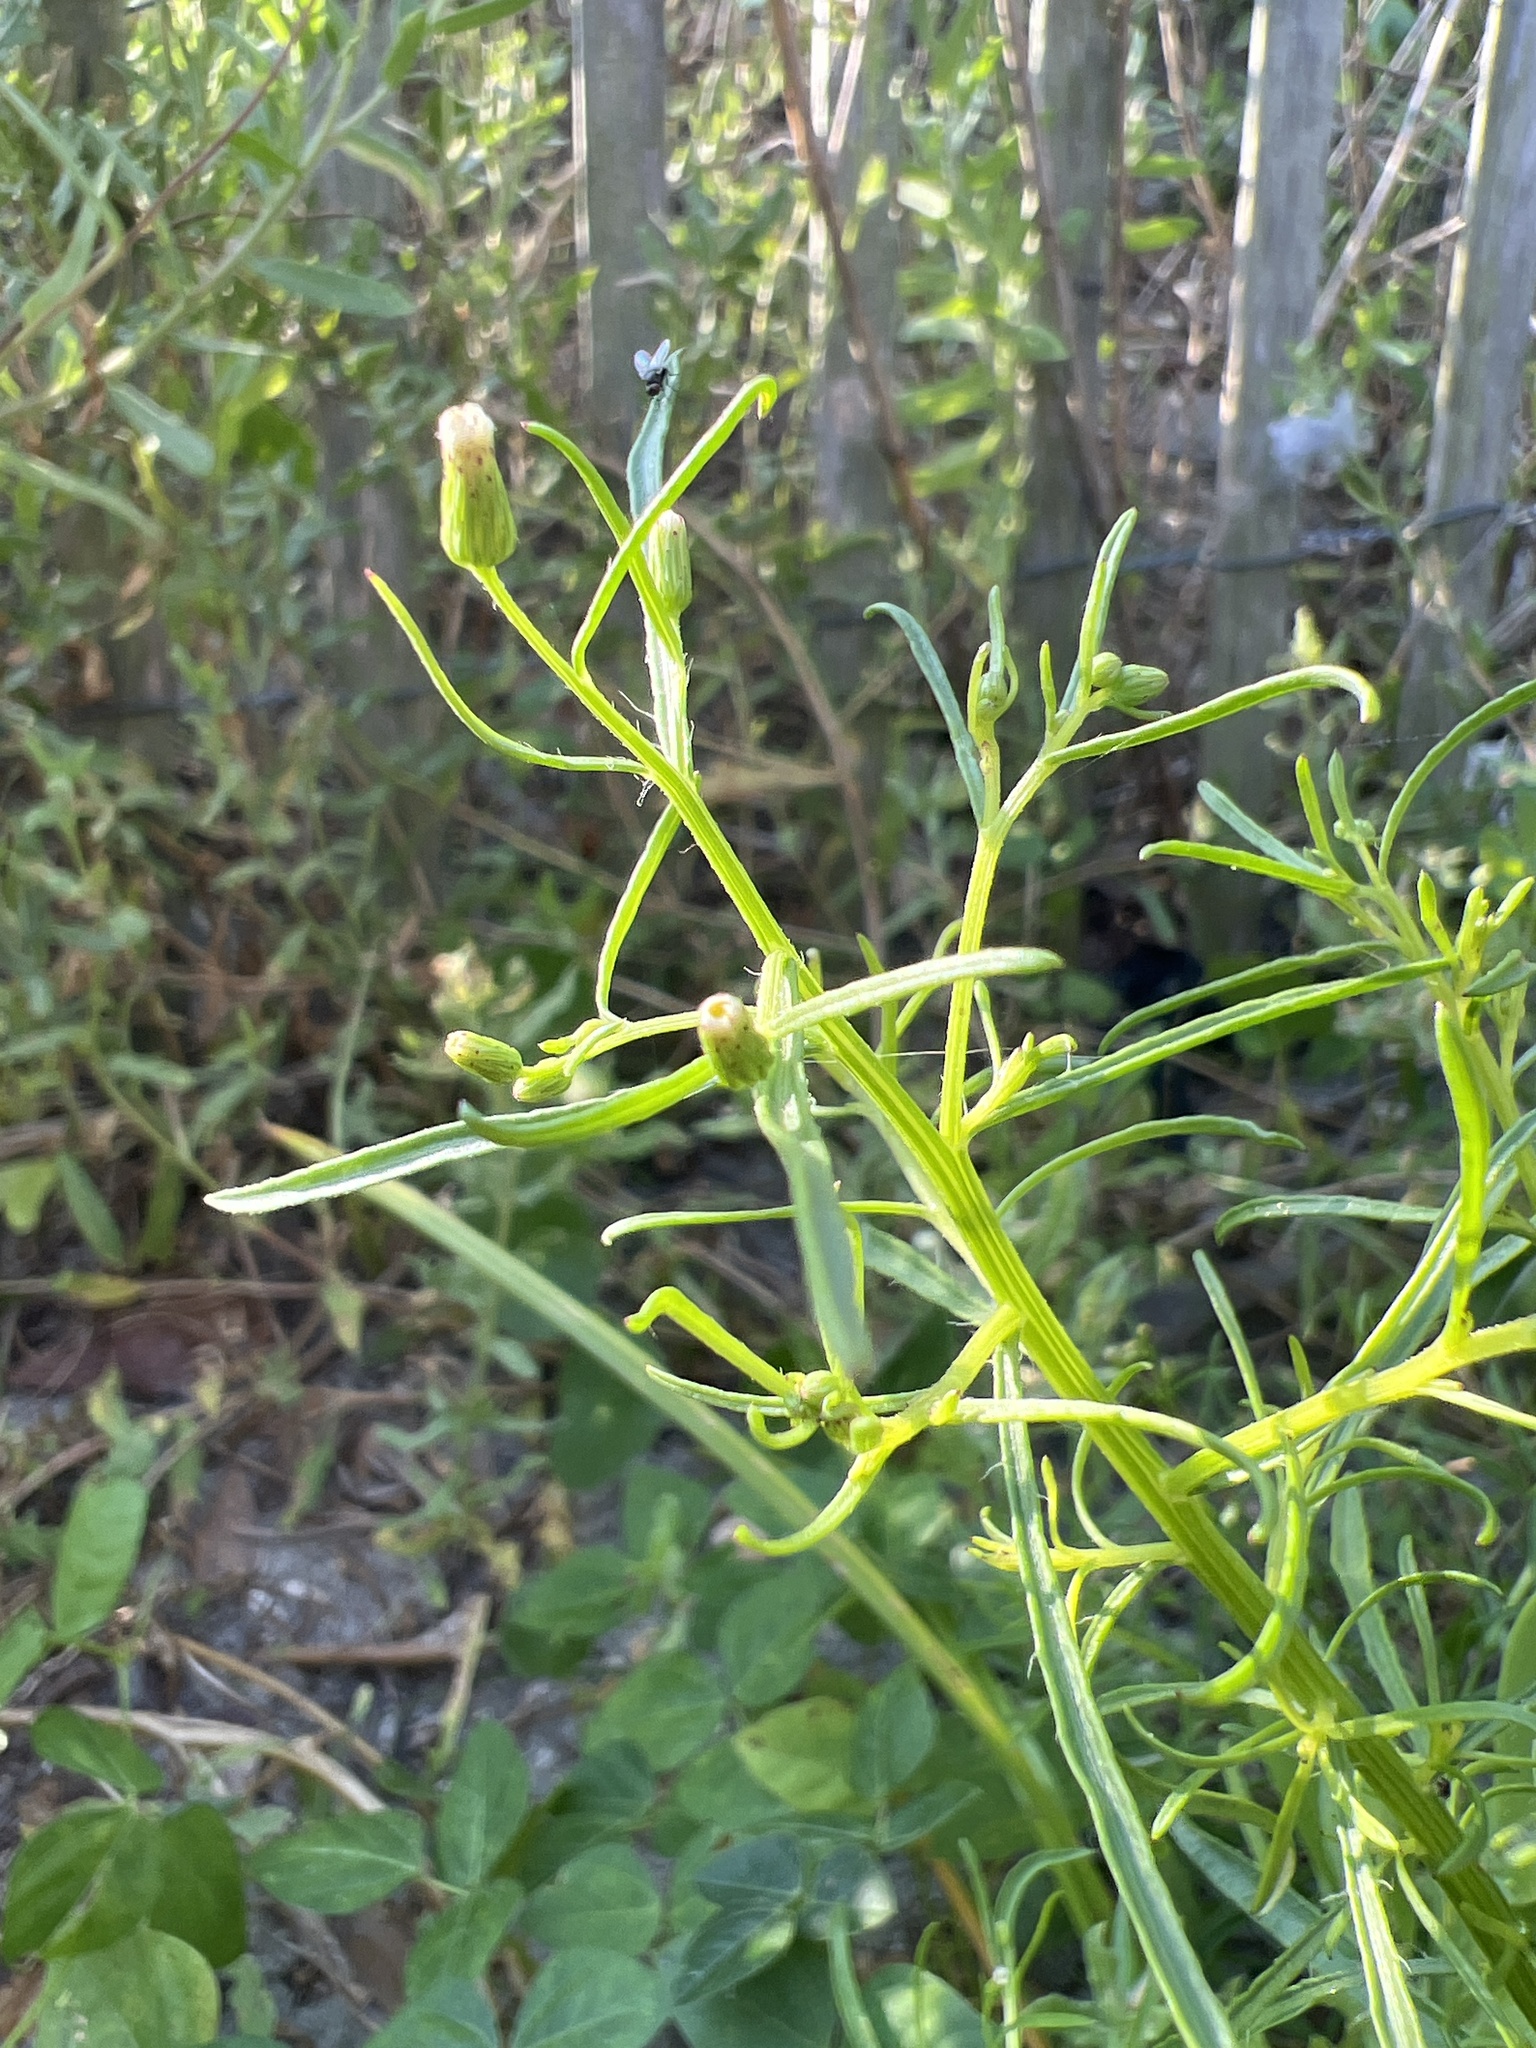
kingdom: Plantae
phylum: Tracheophyta
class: Magnoliopsida
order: Asterales
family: Asteraceae
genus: Erigeron
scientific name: Erigeron canadensis
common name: Canadian fleabane
